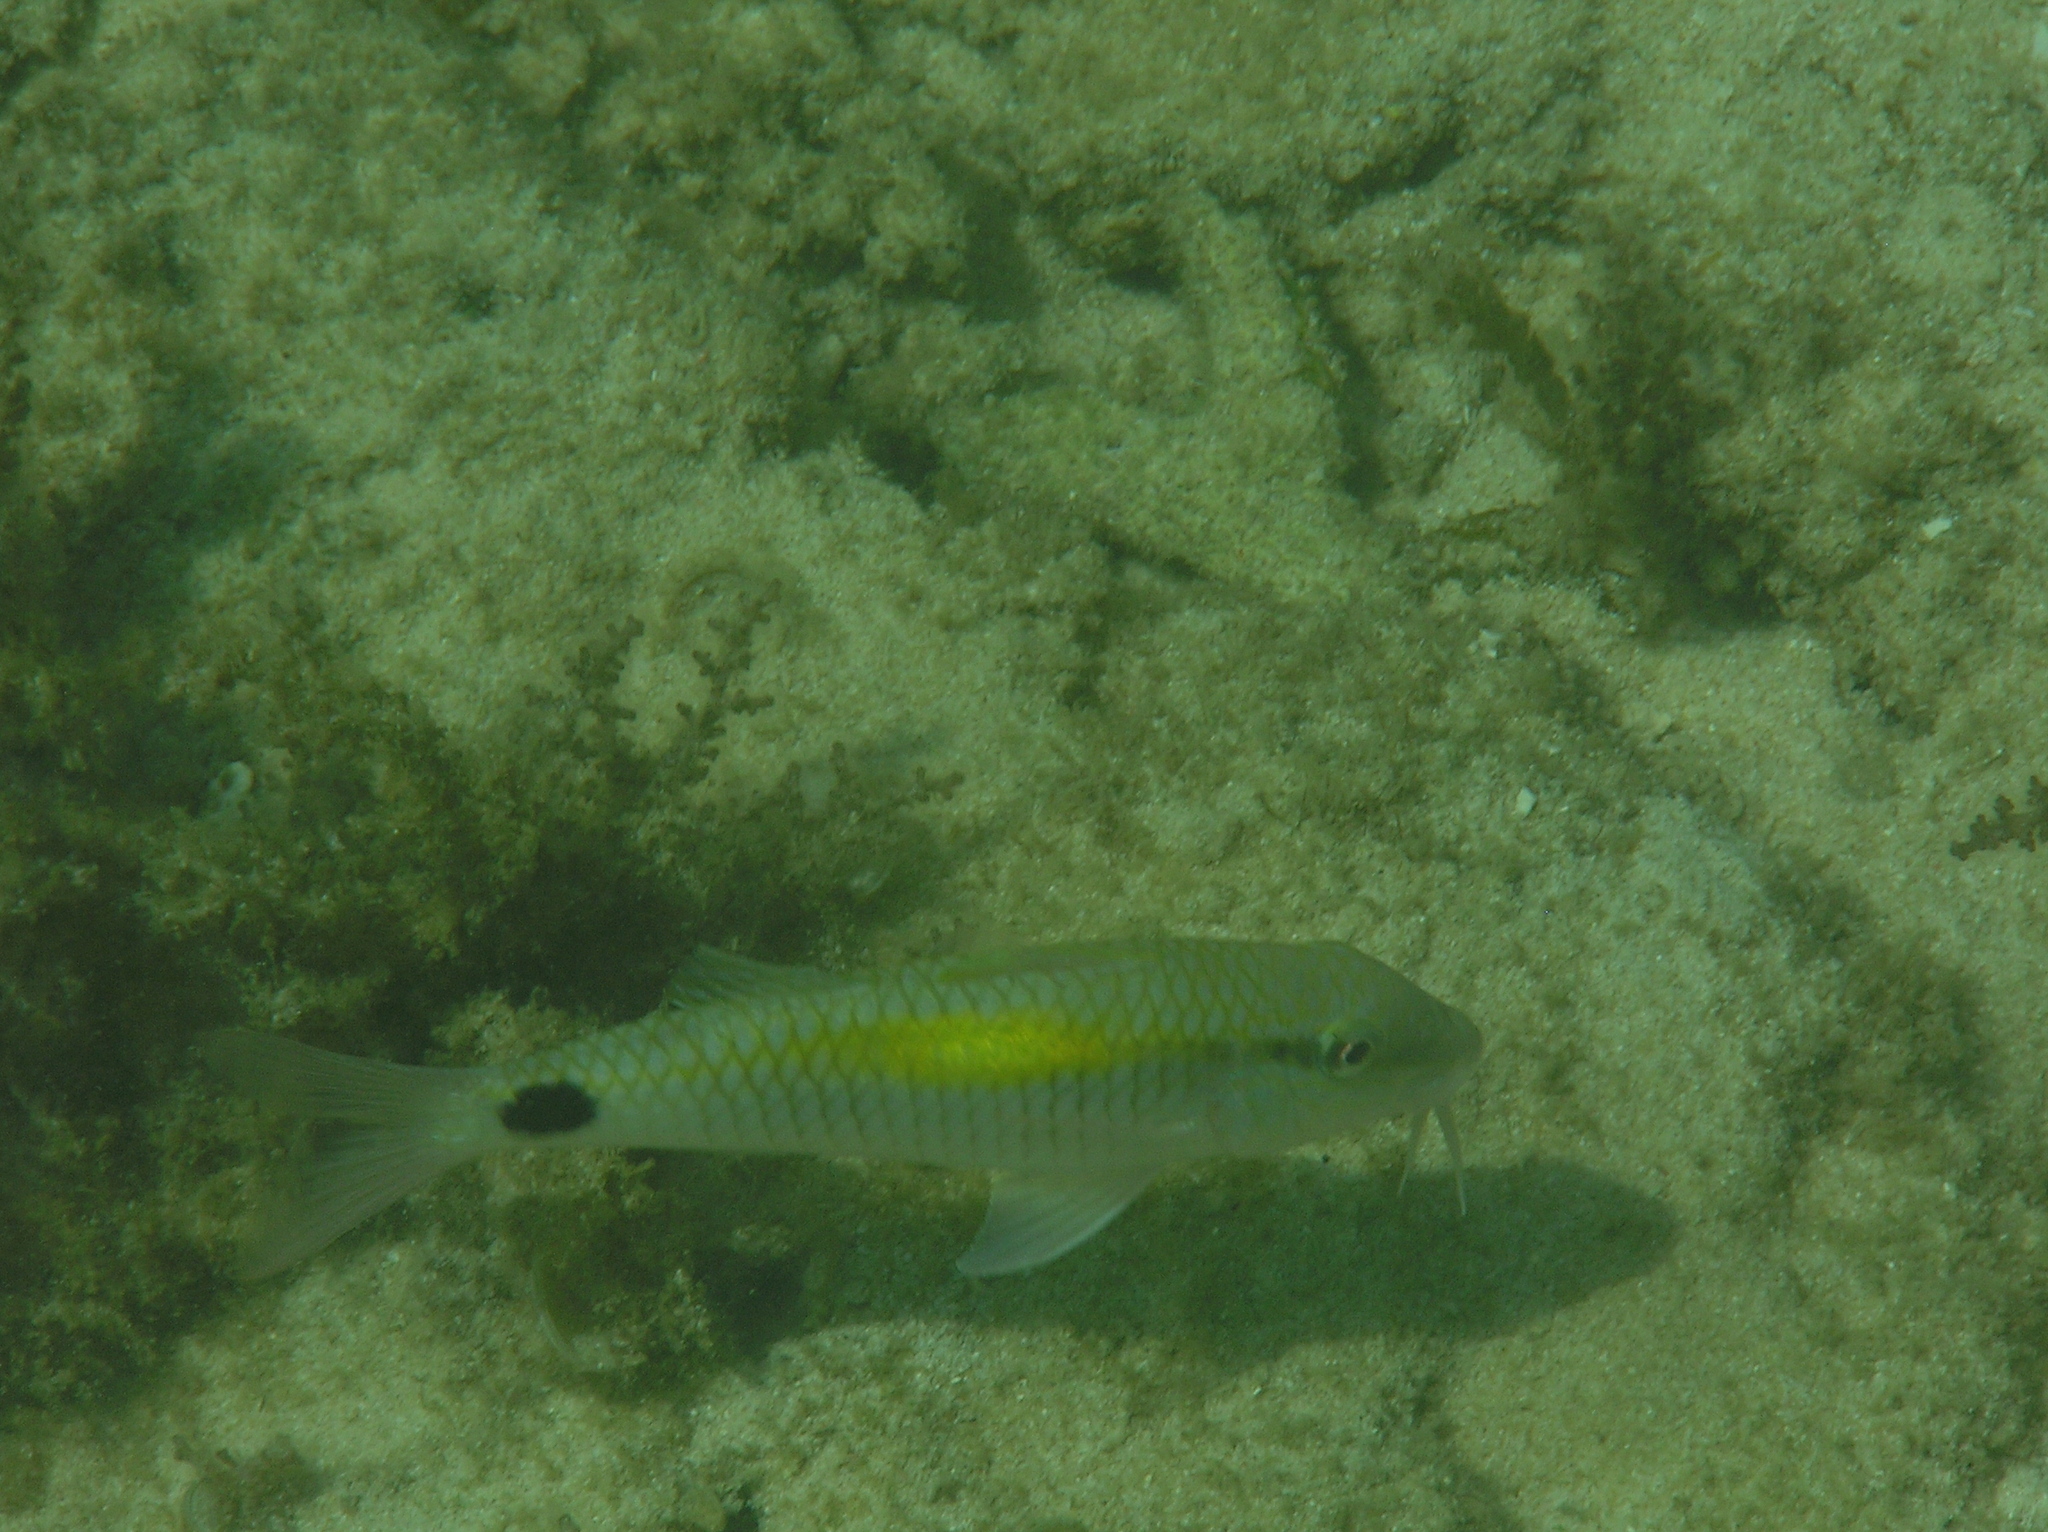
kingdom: Animalia
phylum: Chordata
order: Perciformes
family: Mullidae
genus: Parupeneus
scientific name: Parupeneus indicus
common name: Indian goatfish
